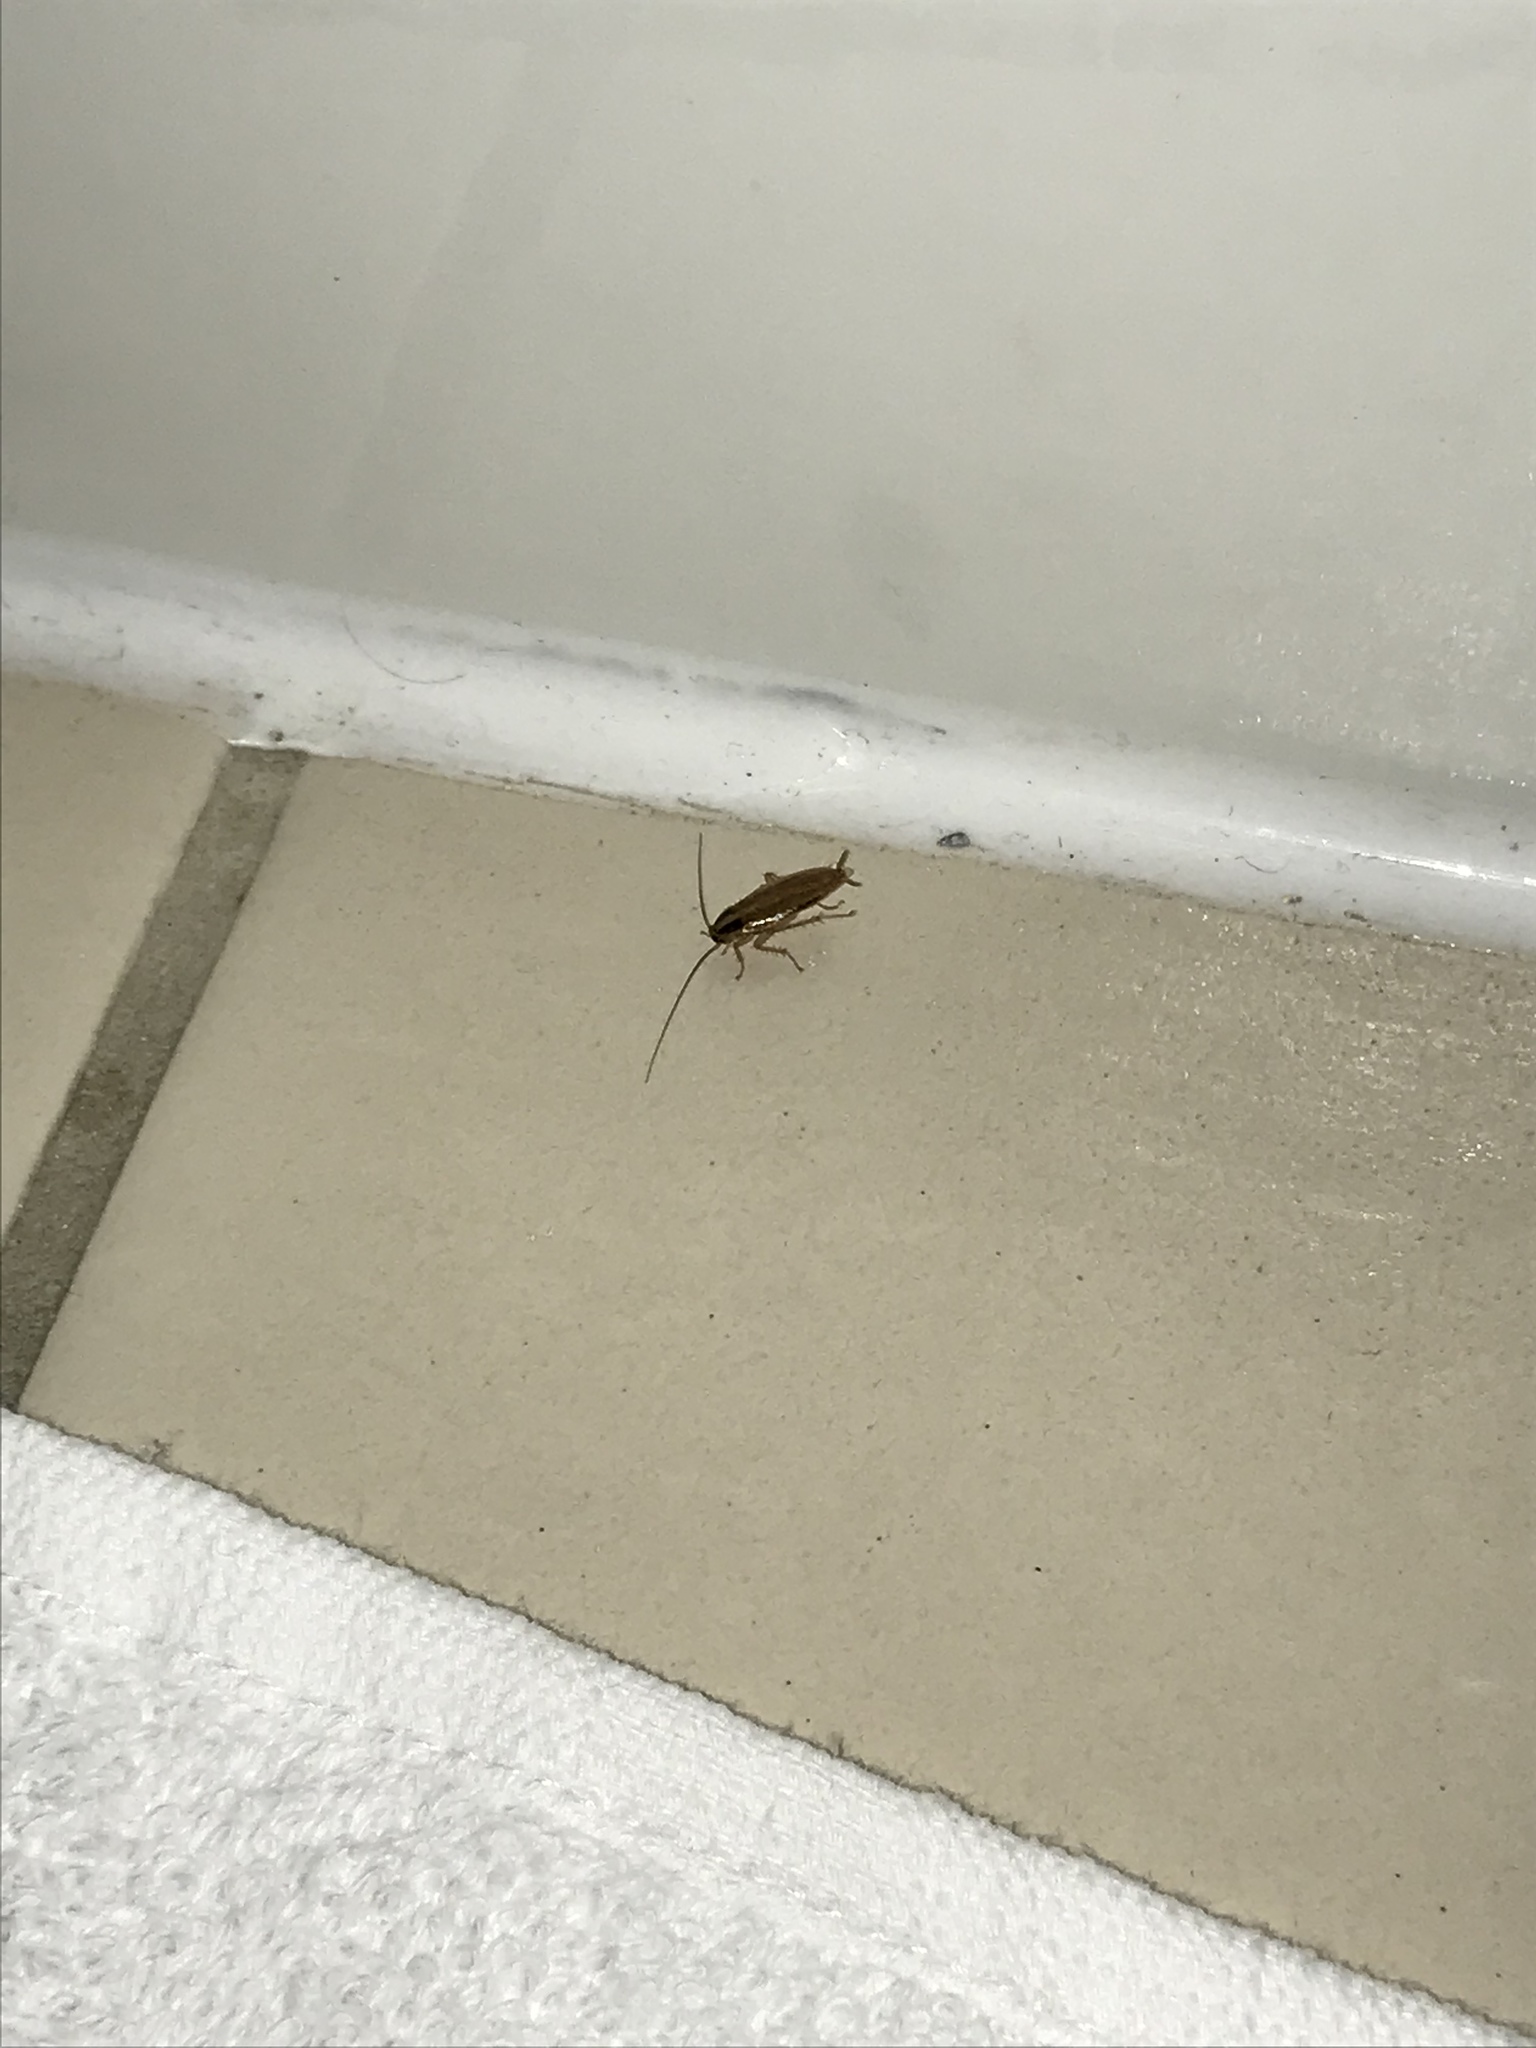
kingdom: Animalia
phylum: Arthropoda
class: Insecta
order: Blattodea
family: Ectobiidae
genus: Blattella
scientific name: Blattella germanica
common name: German cockroach
